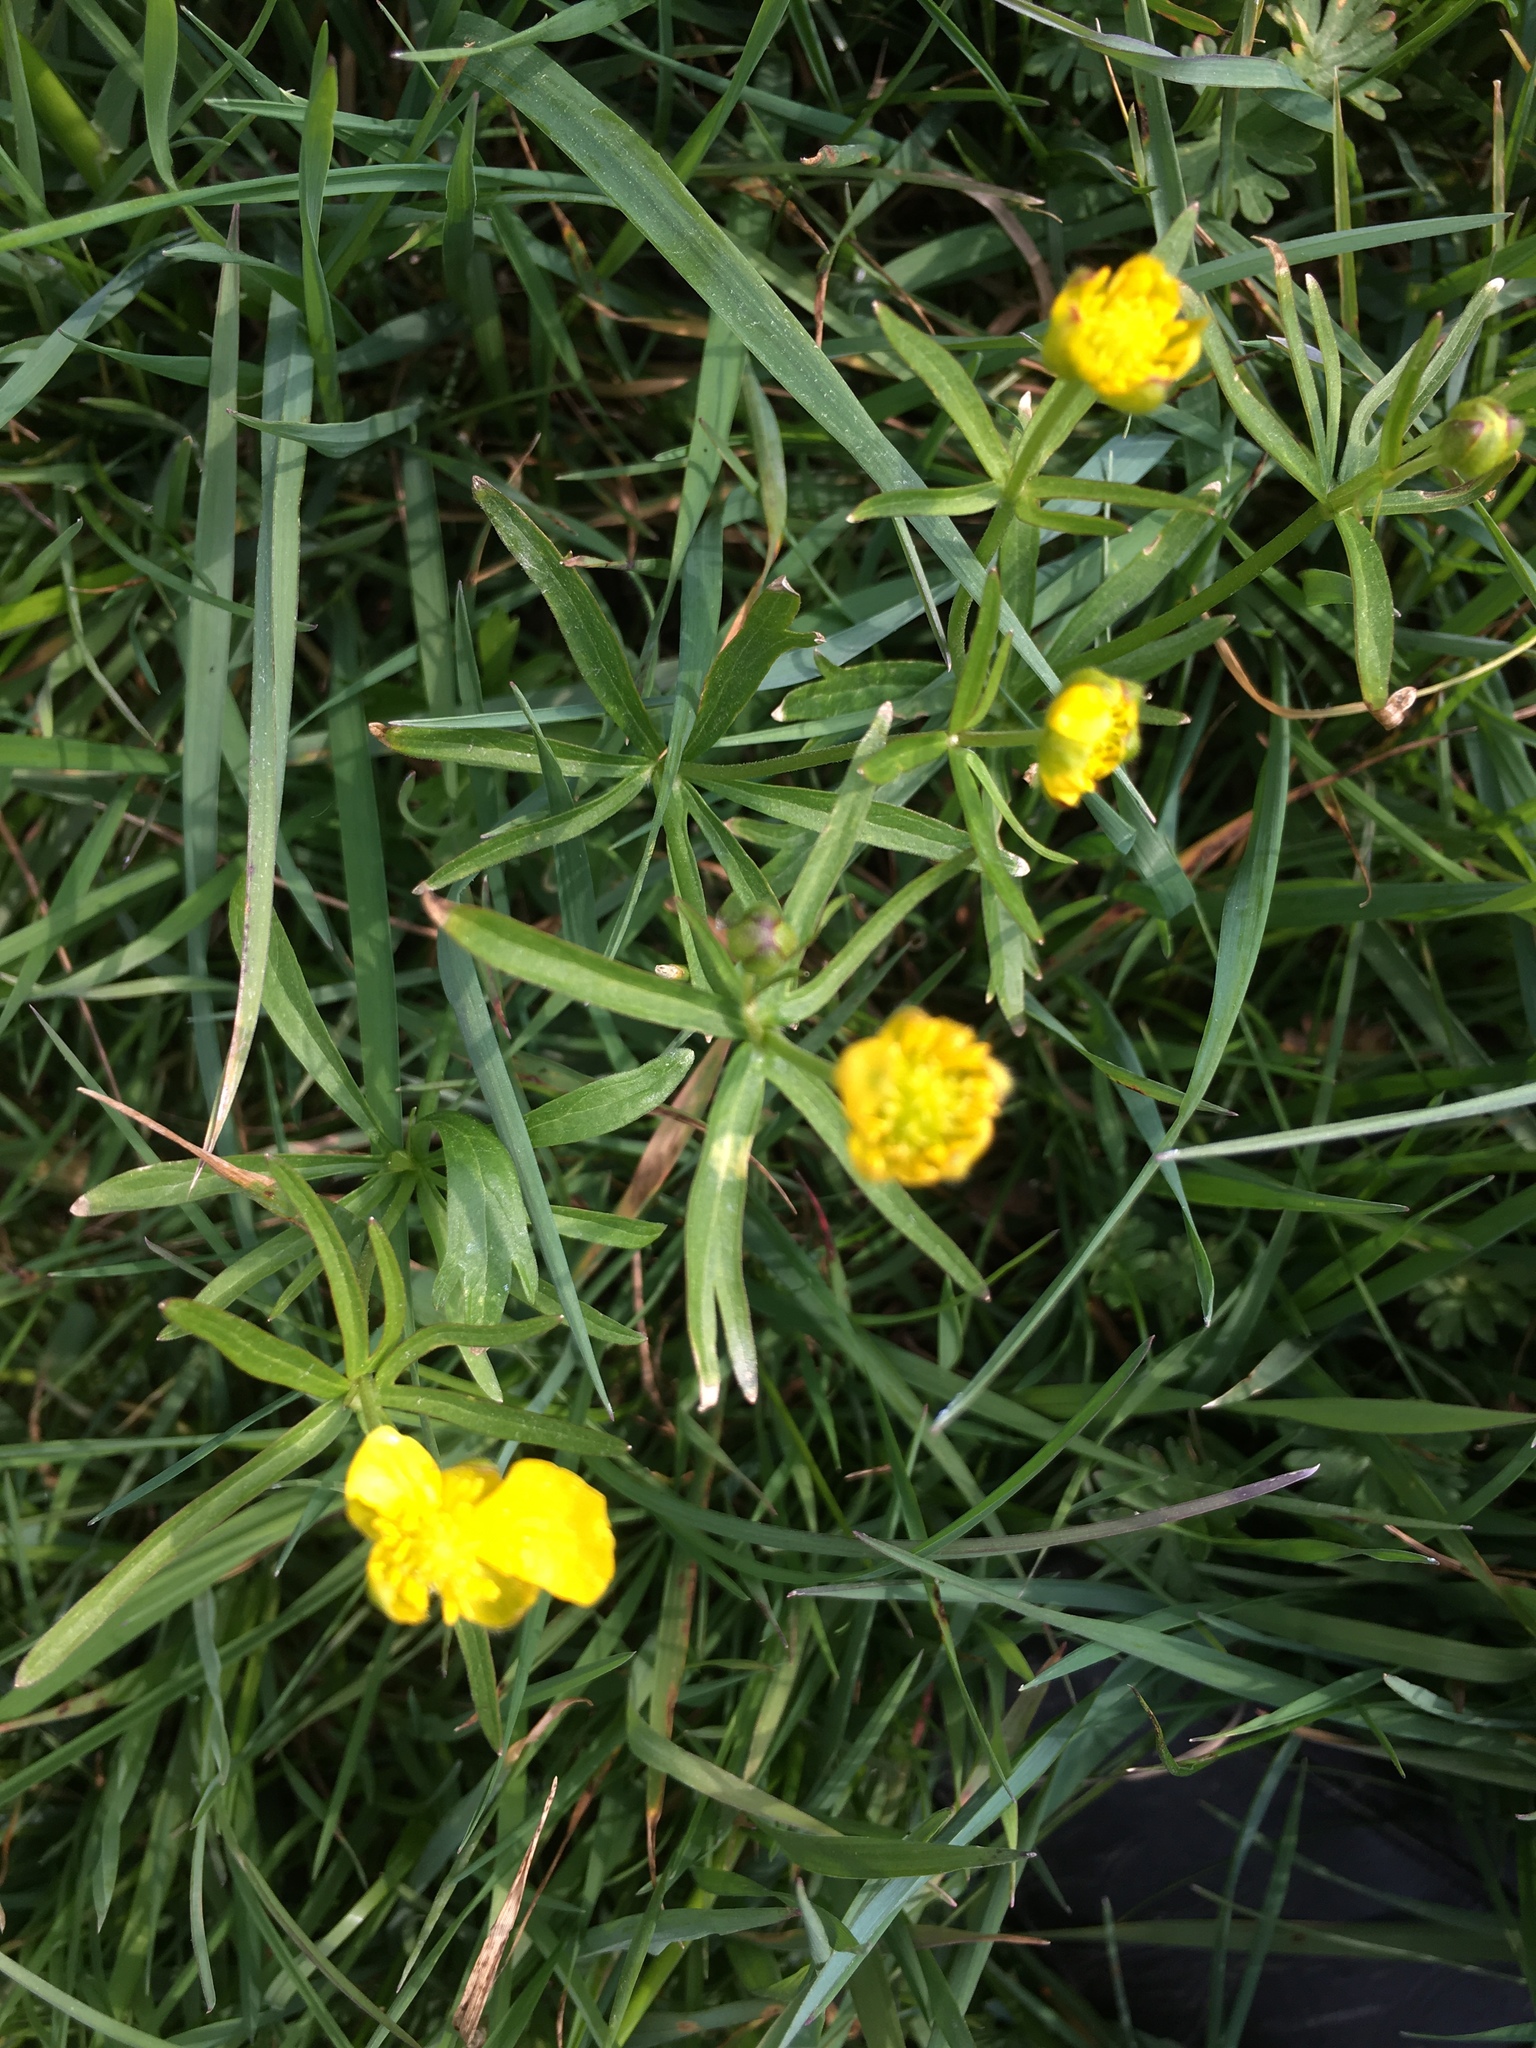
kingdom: Plantae
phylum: Tracheophyta
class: Magnoliopsida
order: Ranunculales
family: Ranunculaceae
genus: Ranunculus
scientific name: Ranunculus auricomus
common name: Goldilocks buttercup
